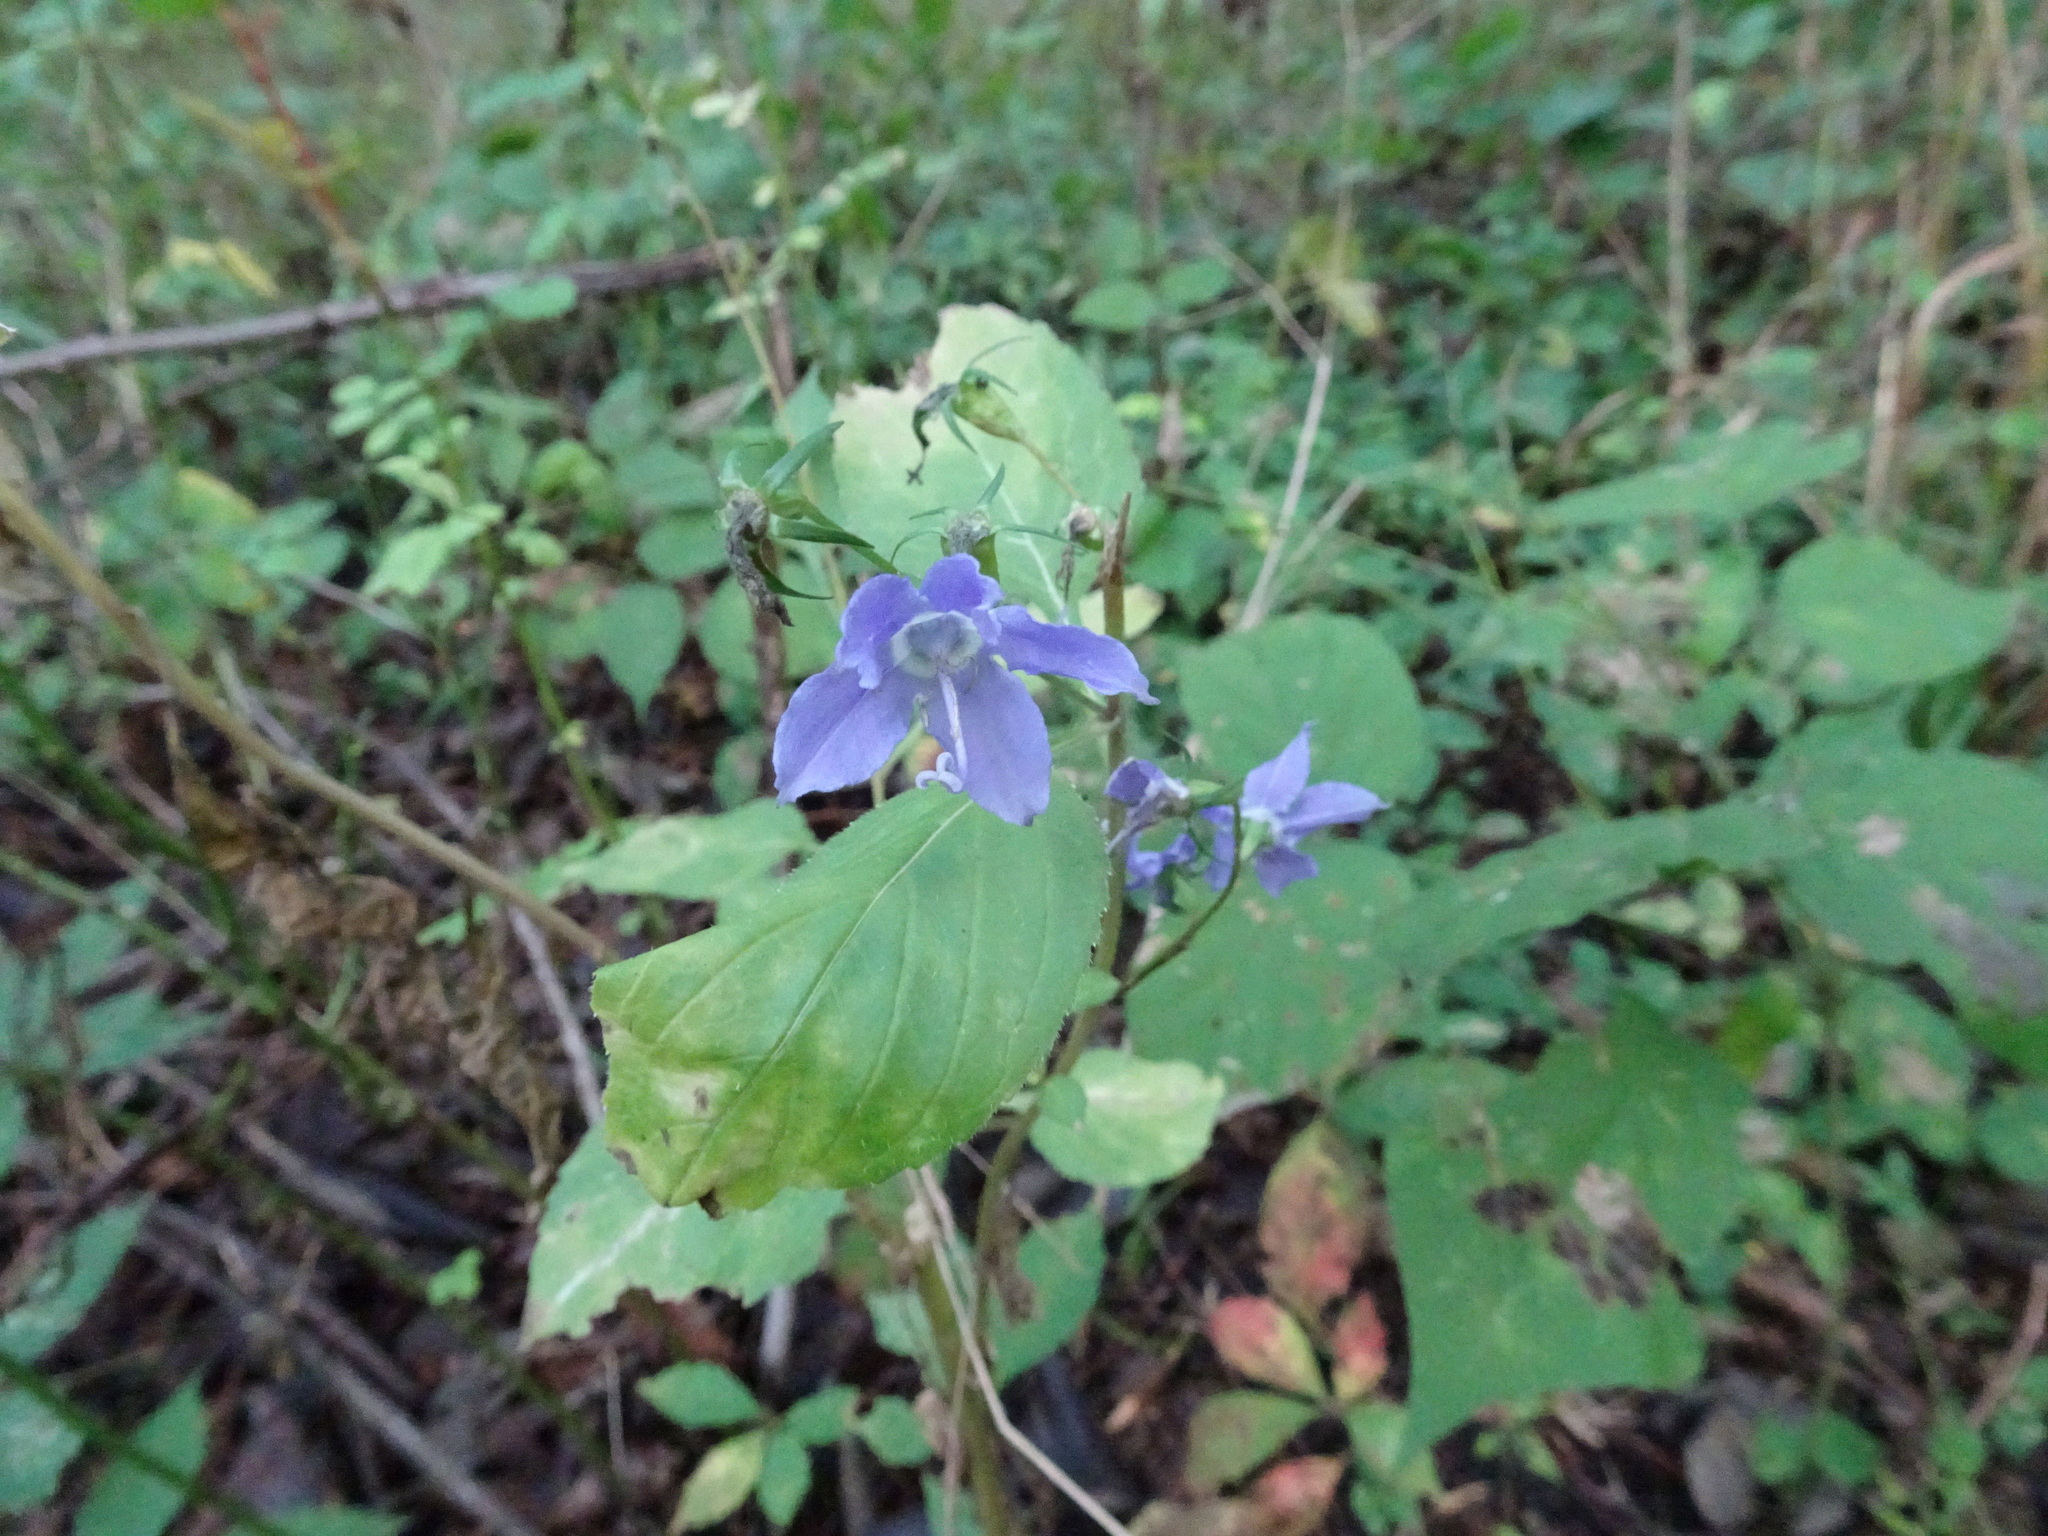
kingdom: Plantae
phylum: Tracheophyta
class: Magnoliopsida
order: Asterales
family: Campanulaceae
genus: Campanulastrum
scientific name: Campanulastrum americanum
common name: American bellflower
